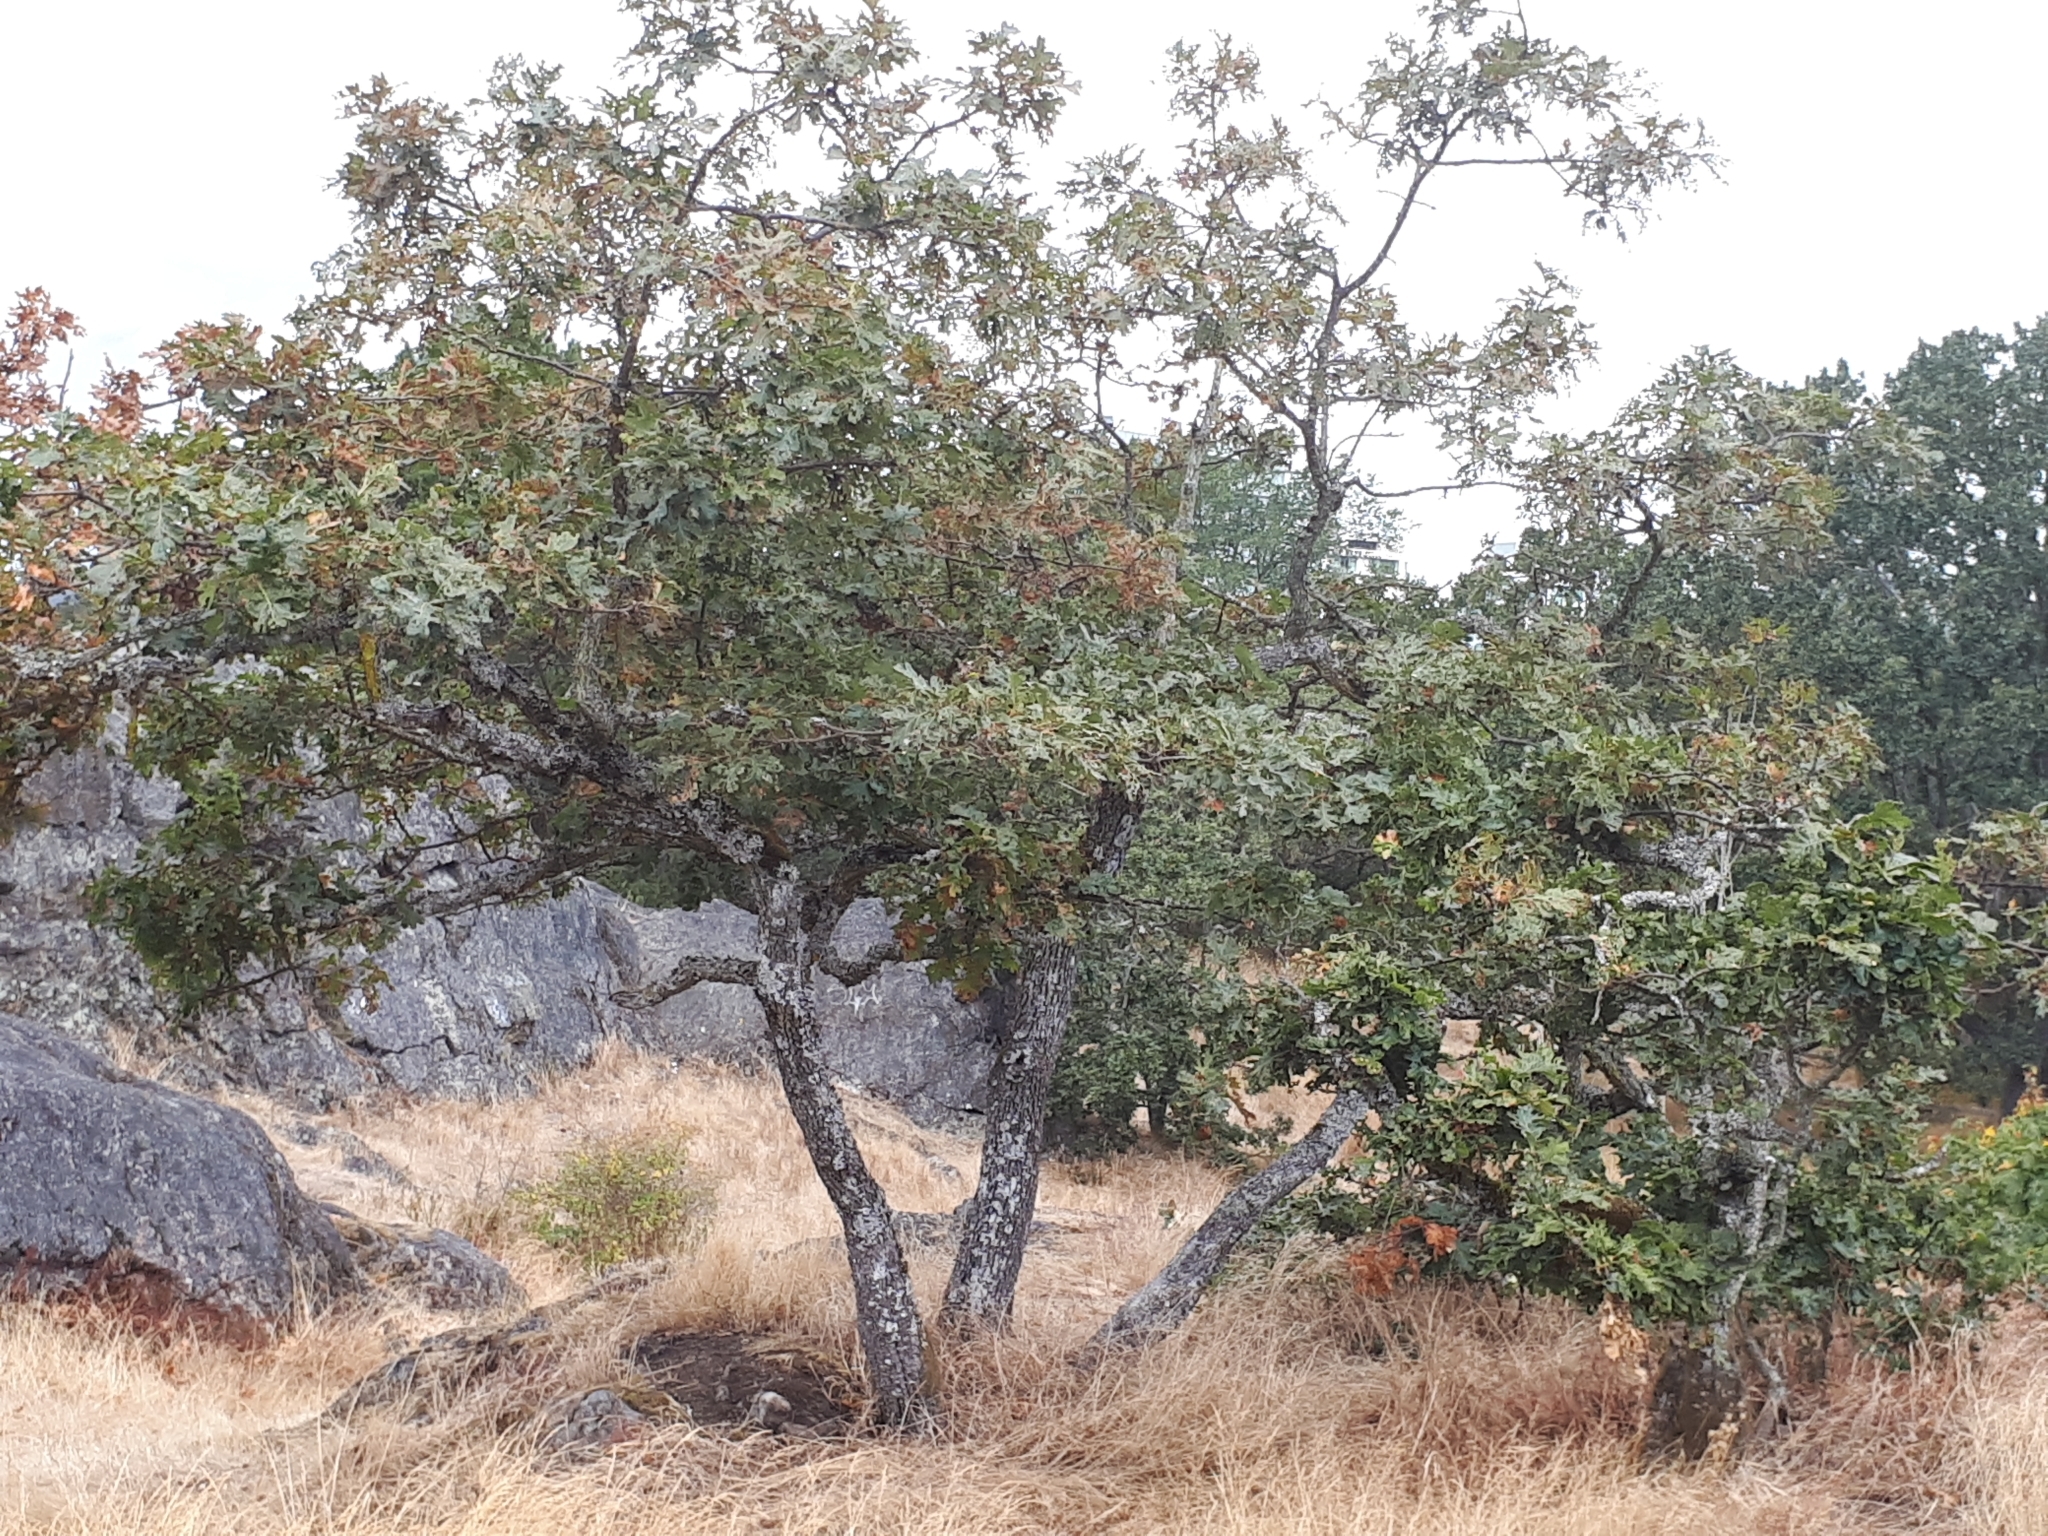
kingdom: Plantae
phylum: Tracheophyta
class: Magnoliopsida
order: Fagales
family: Fagaceae
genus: Quercus
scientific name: Quercus garryana
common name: Garry oak
